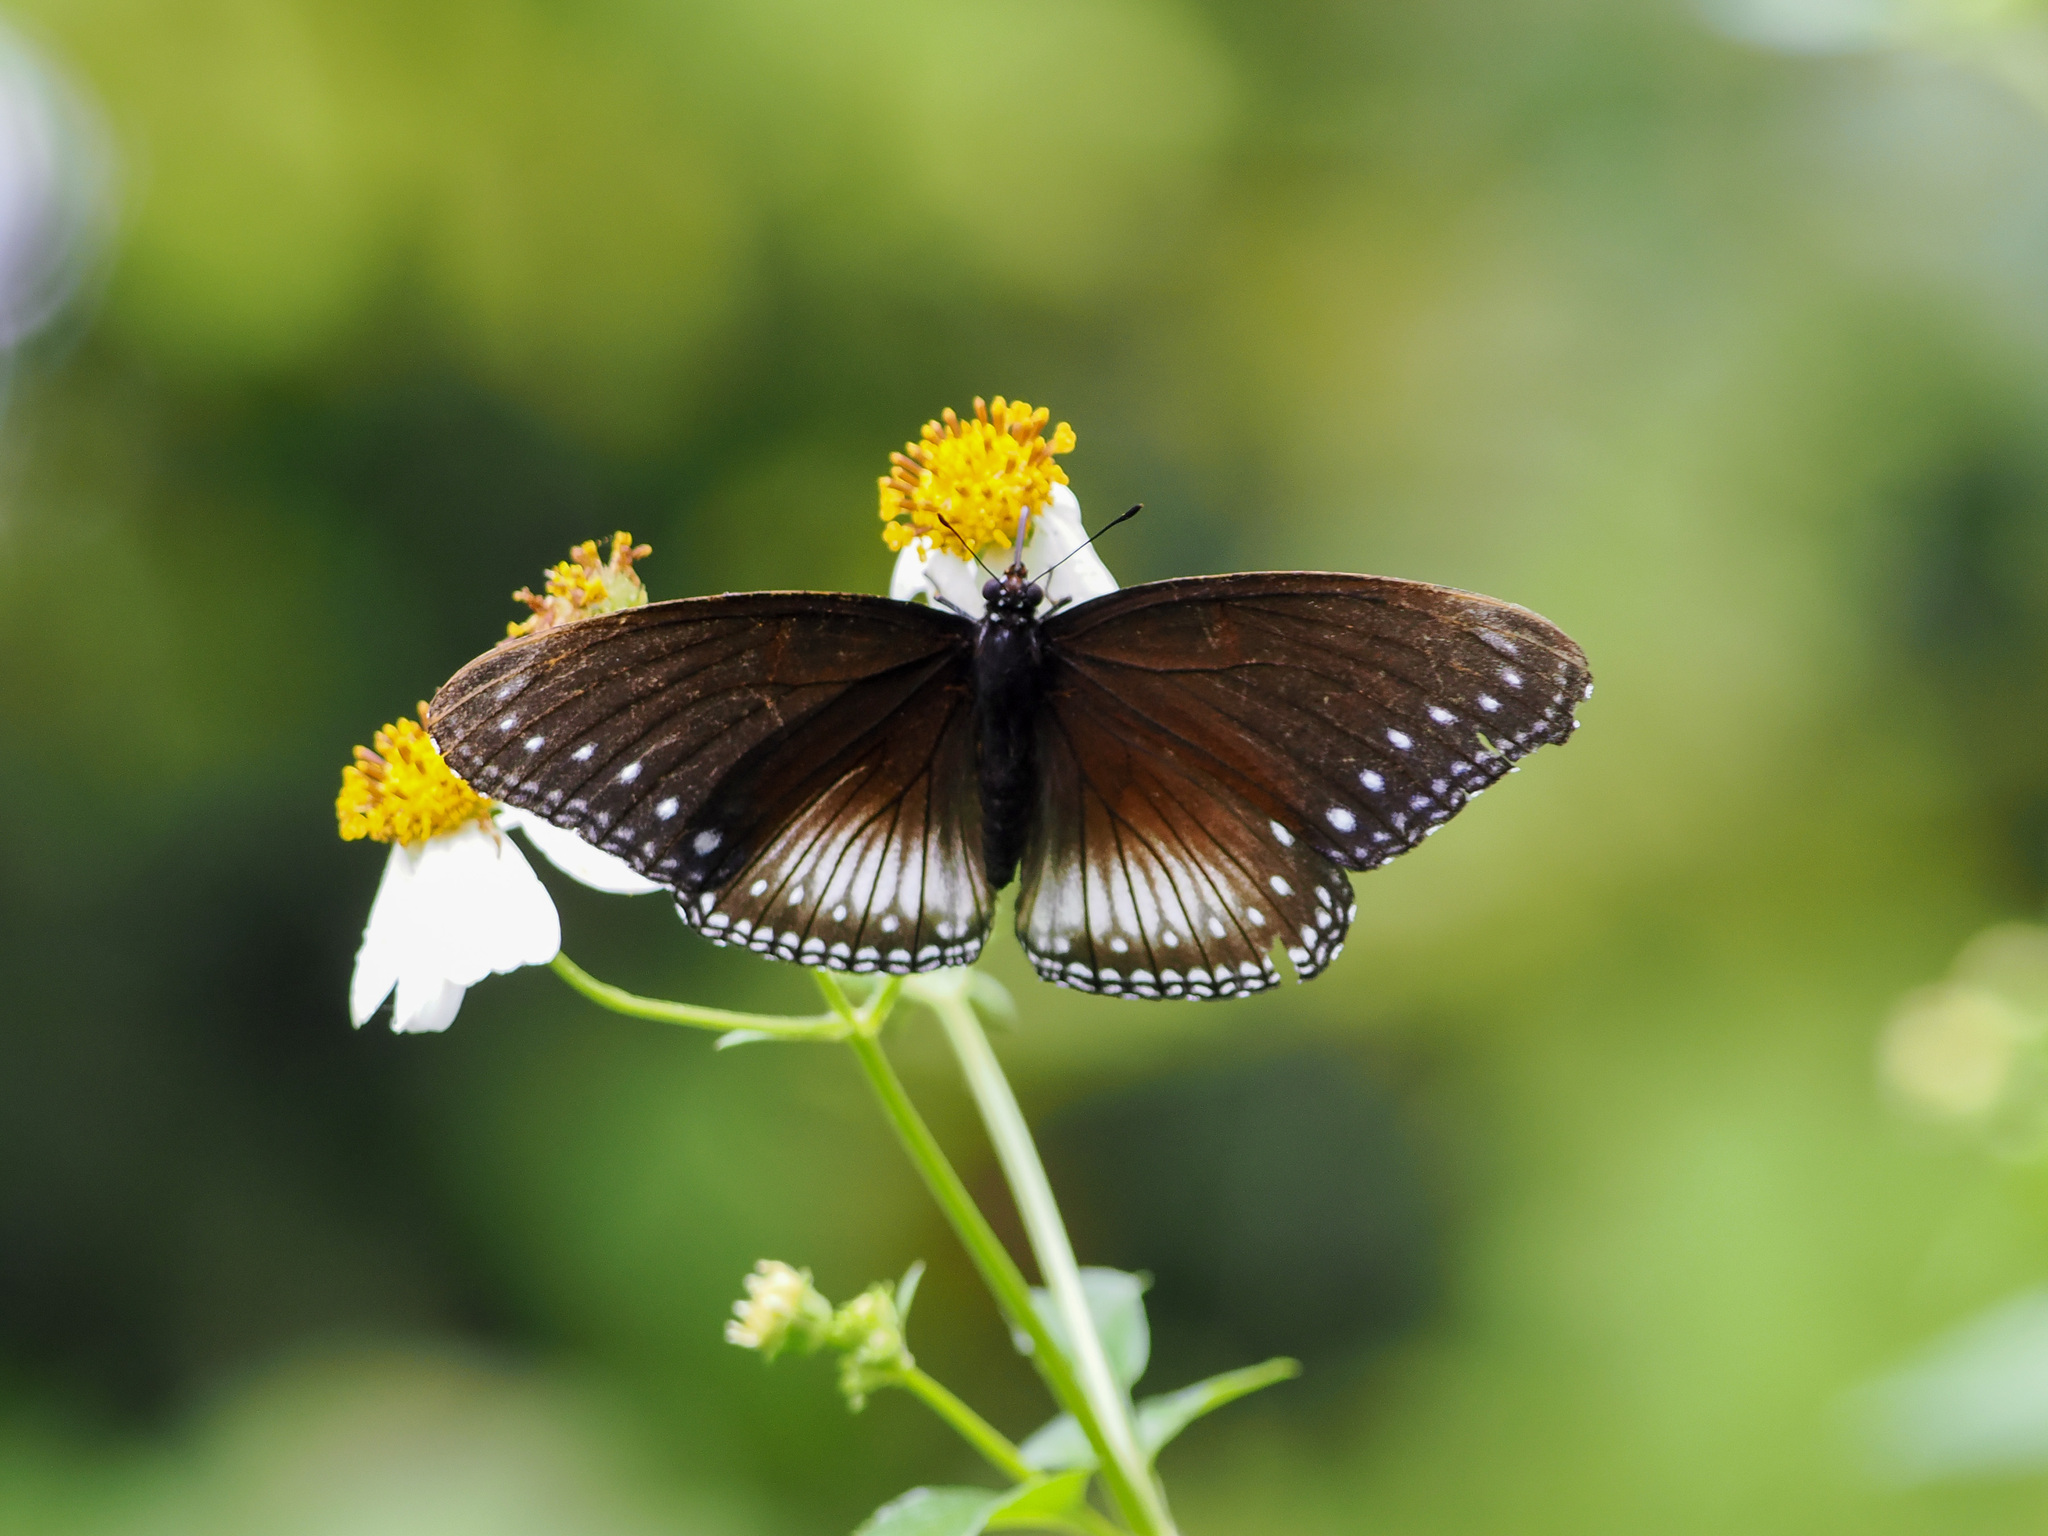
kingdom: Animalia
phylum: Arthropoda
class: Insecta
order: Lepidoptera
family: Nymphalidae
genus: Hypolimnas
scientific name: Hypolimnas anomala
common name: Malayan eggfly
